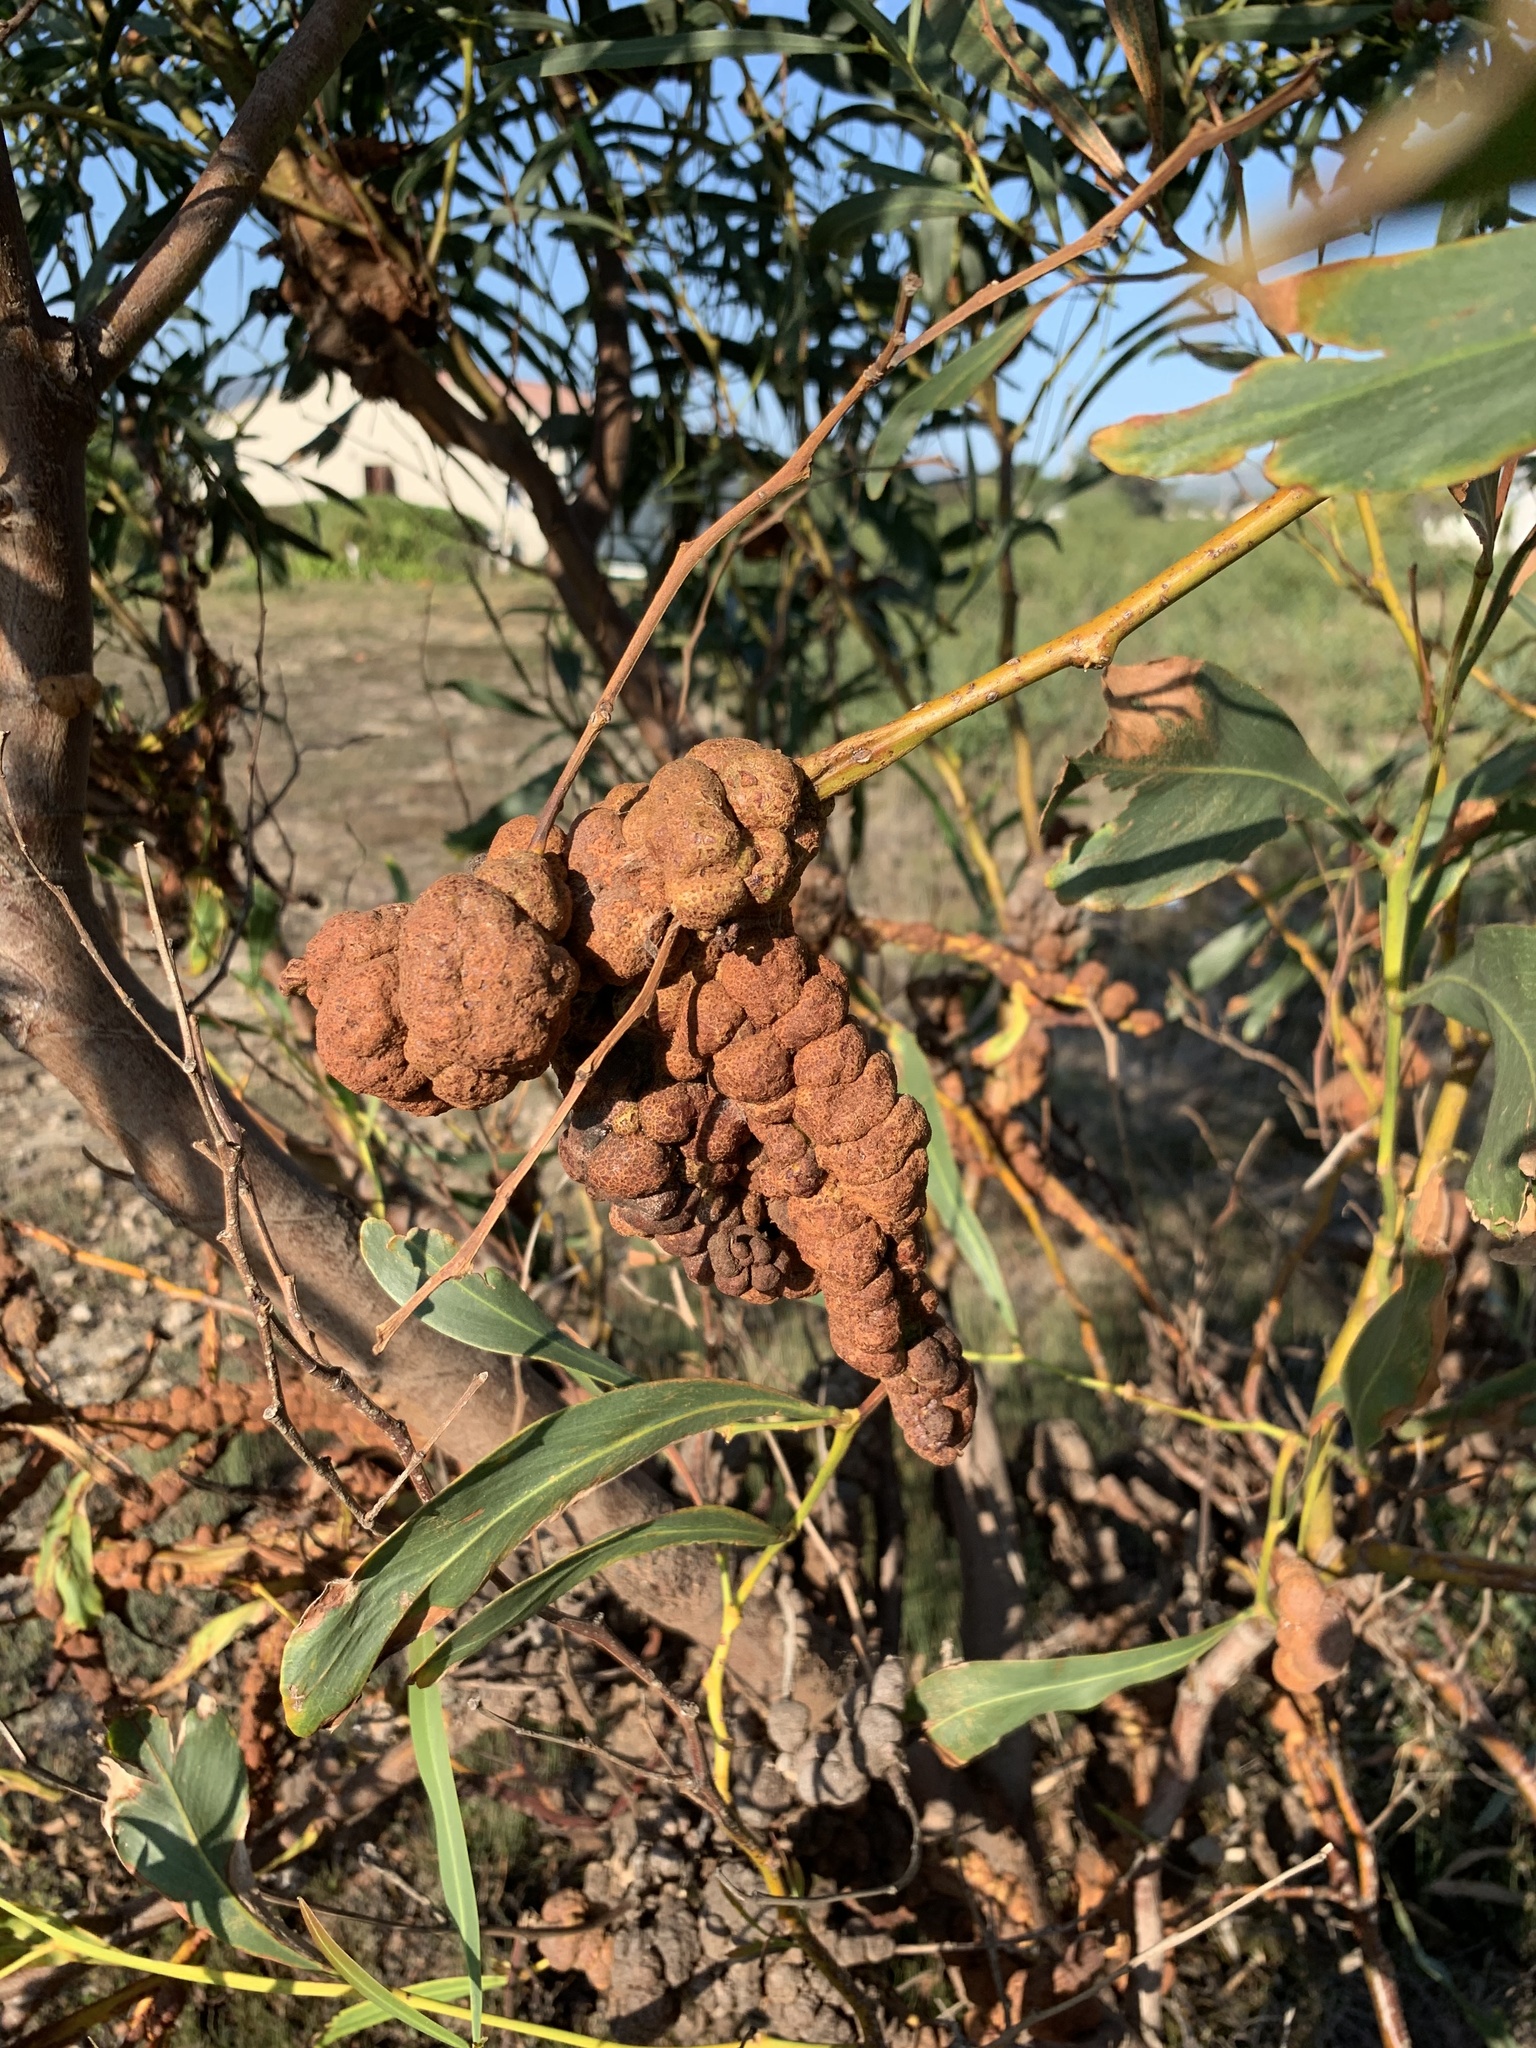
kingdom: Plantae
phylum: Tracheophyta
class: Magnoliopsida
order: Fabales
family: Fabaceae
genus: Acacia
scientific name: Acacia saligna
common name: Orange wattle
